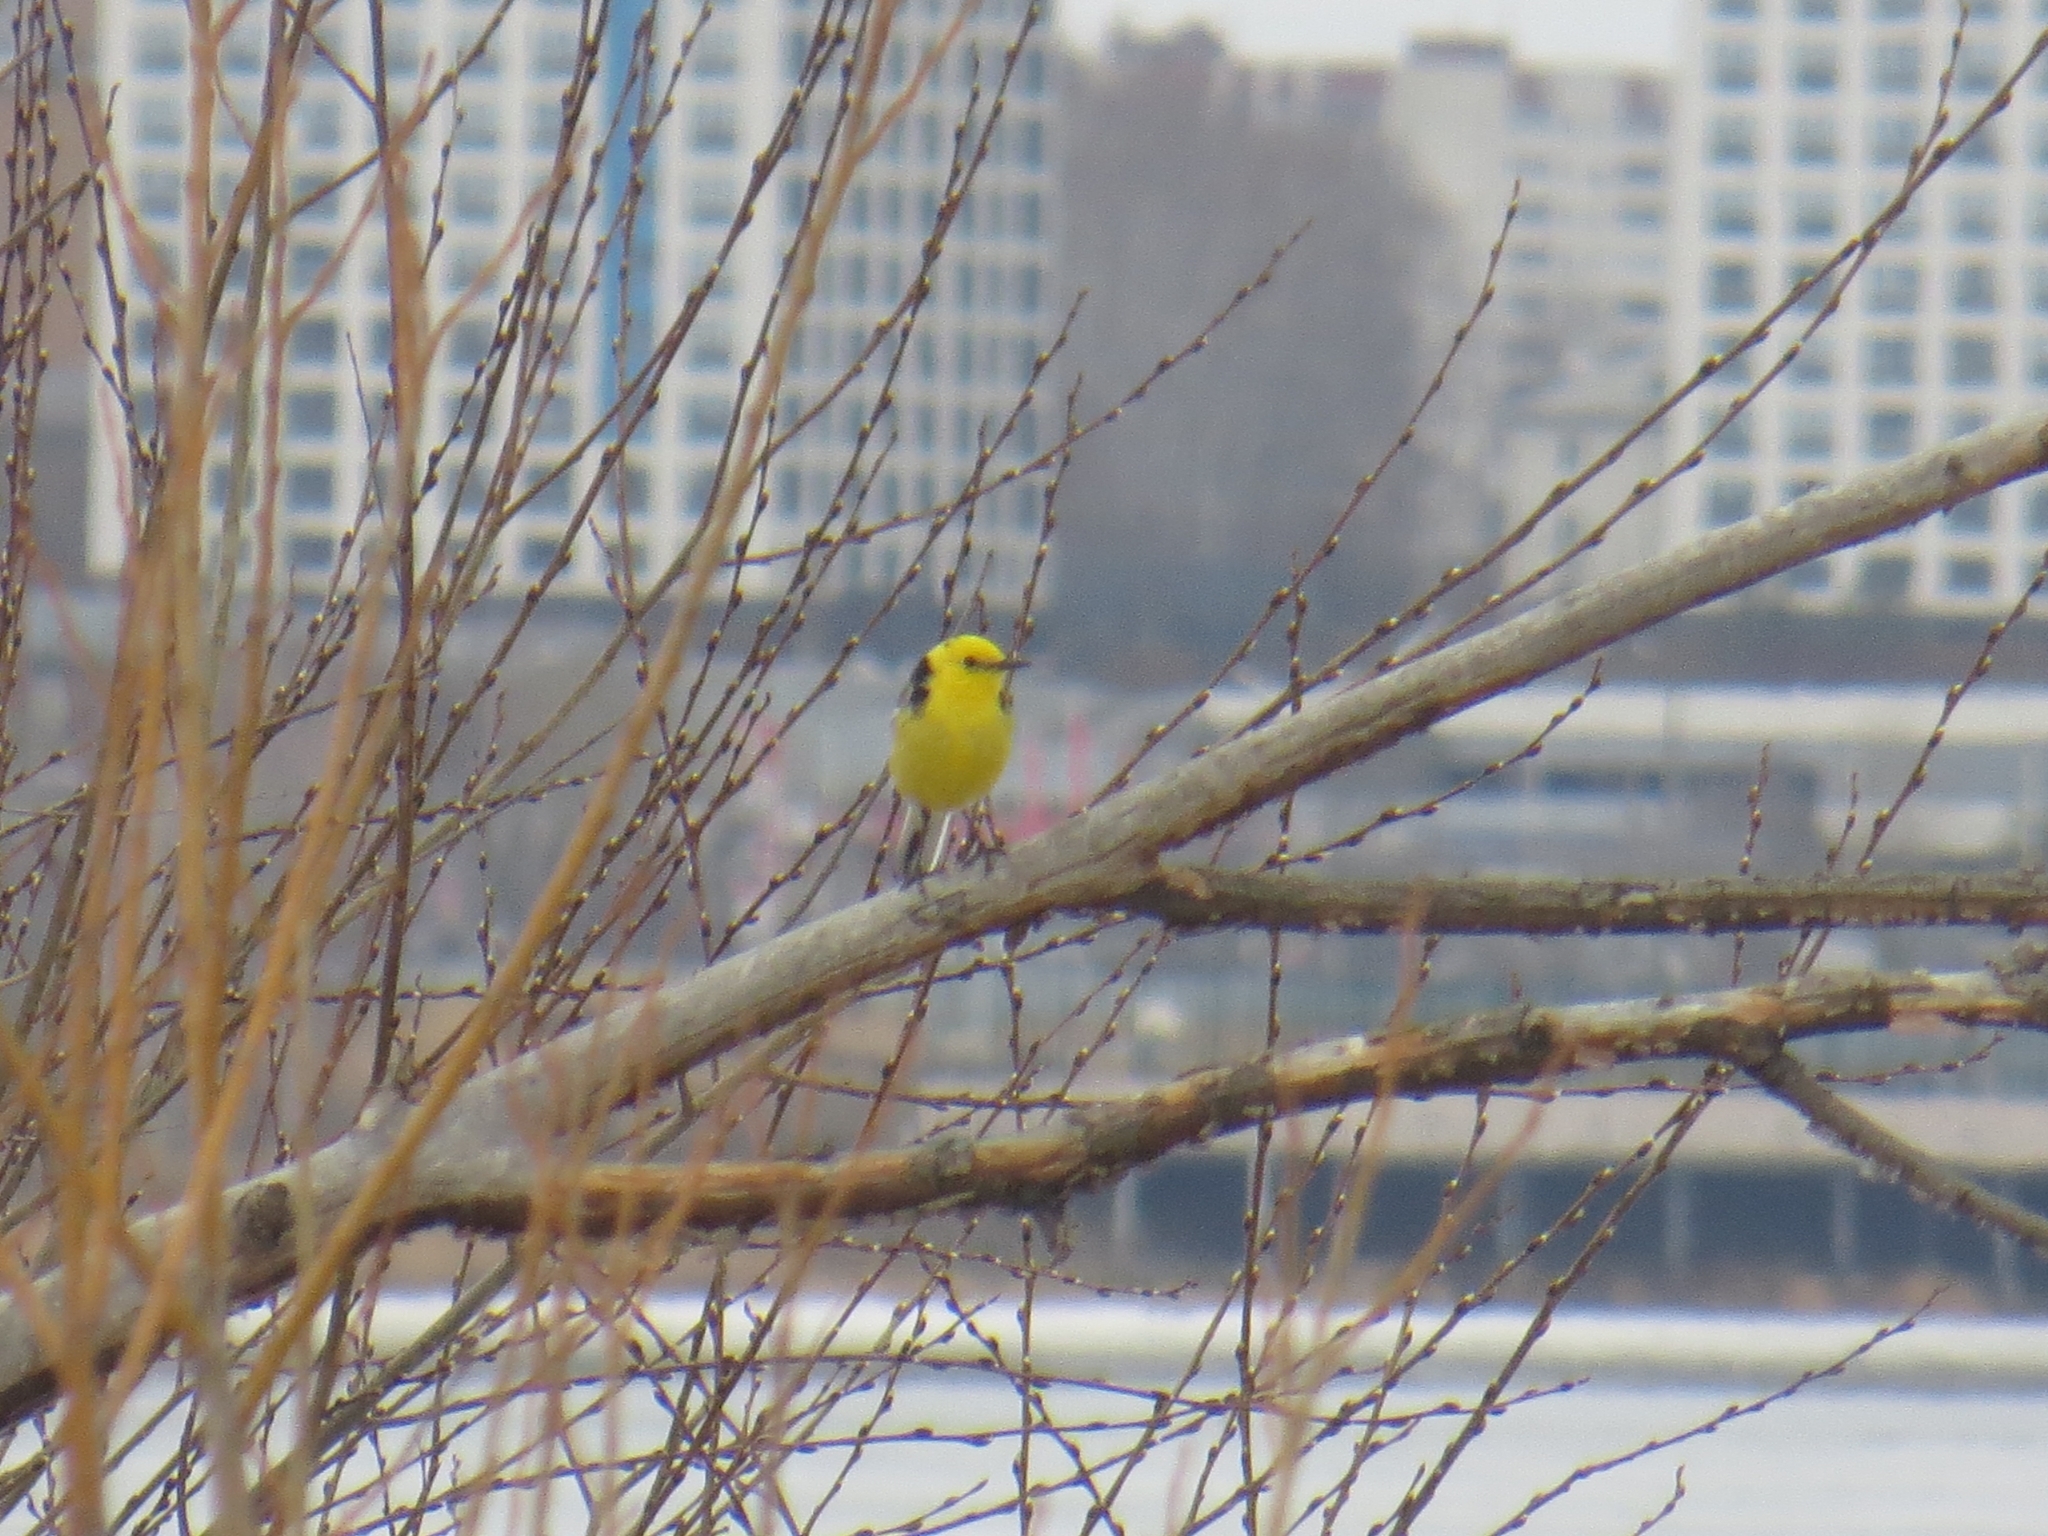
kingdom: Animalia
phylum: Chordata
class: Aves
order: Passeriformes
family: Motacillidae
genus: Motacilla
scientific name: Motacilla citreola
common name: Citrine wagtail
